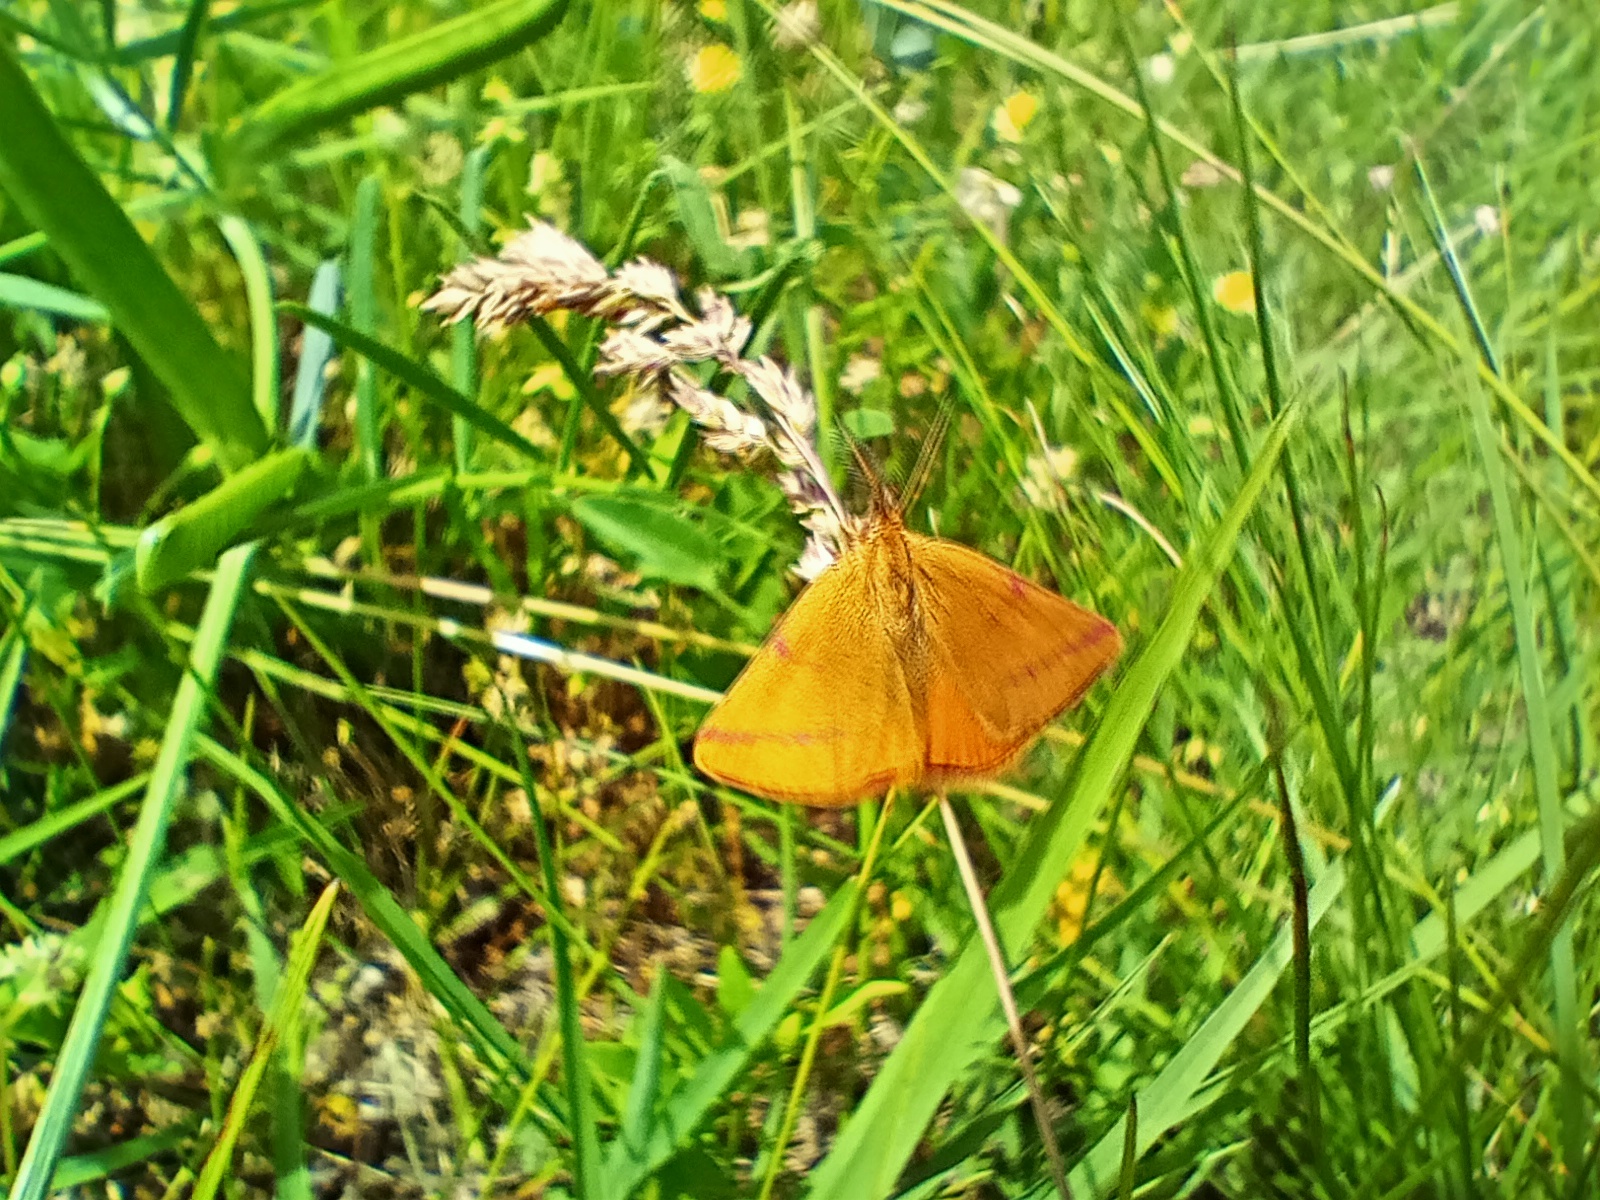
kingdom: Animalia
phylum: Arthropoda
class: Insecta
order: Lepidoptera
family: Geometridae
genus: Lythria
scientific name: Lythria purpuraria
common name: Purple-barred yellow
